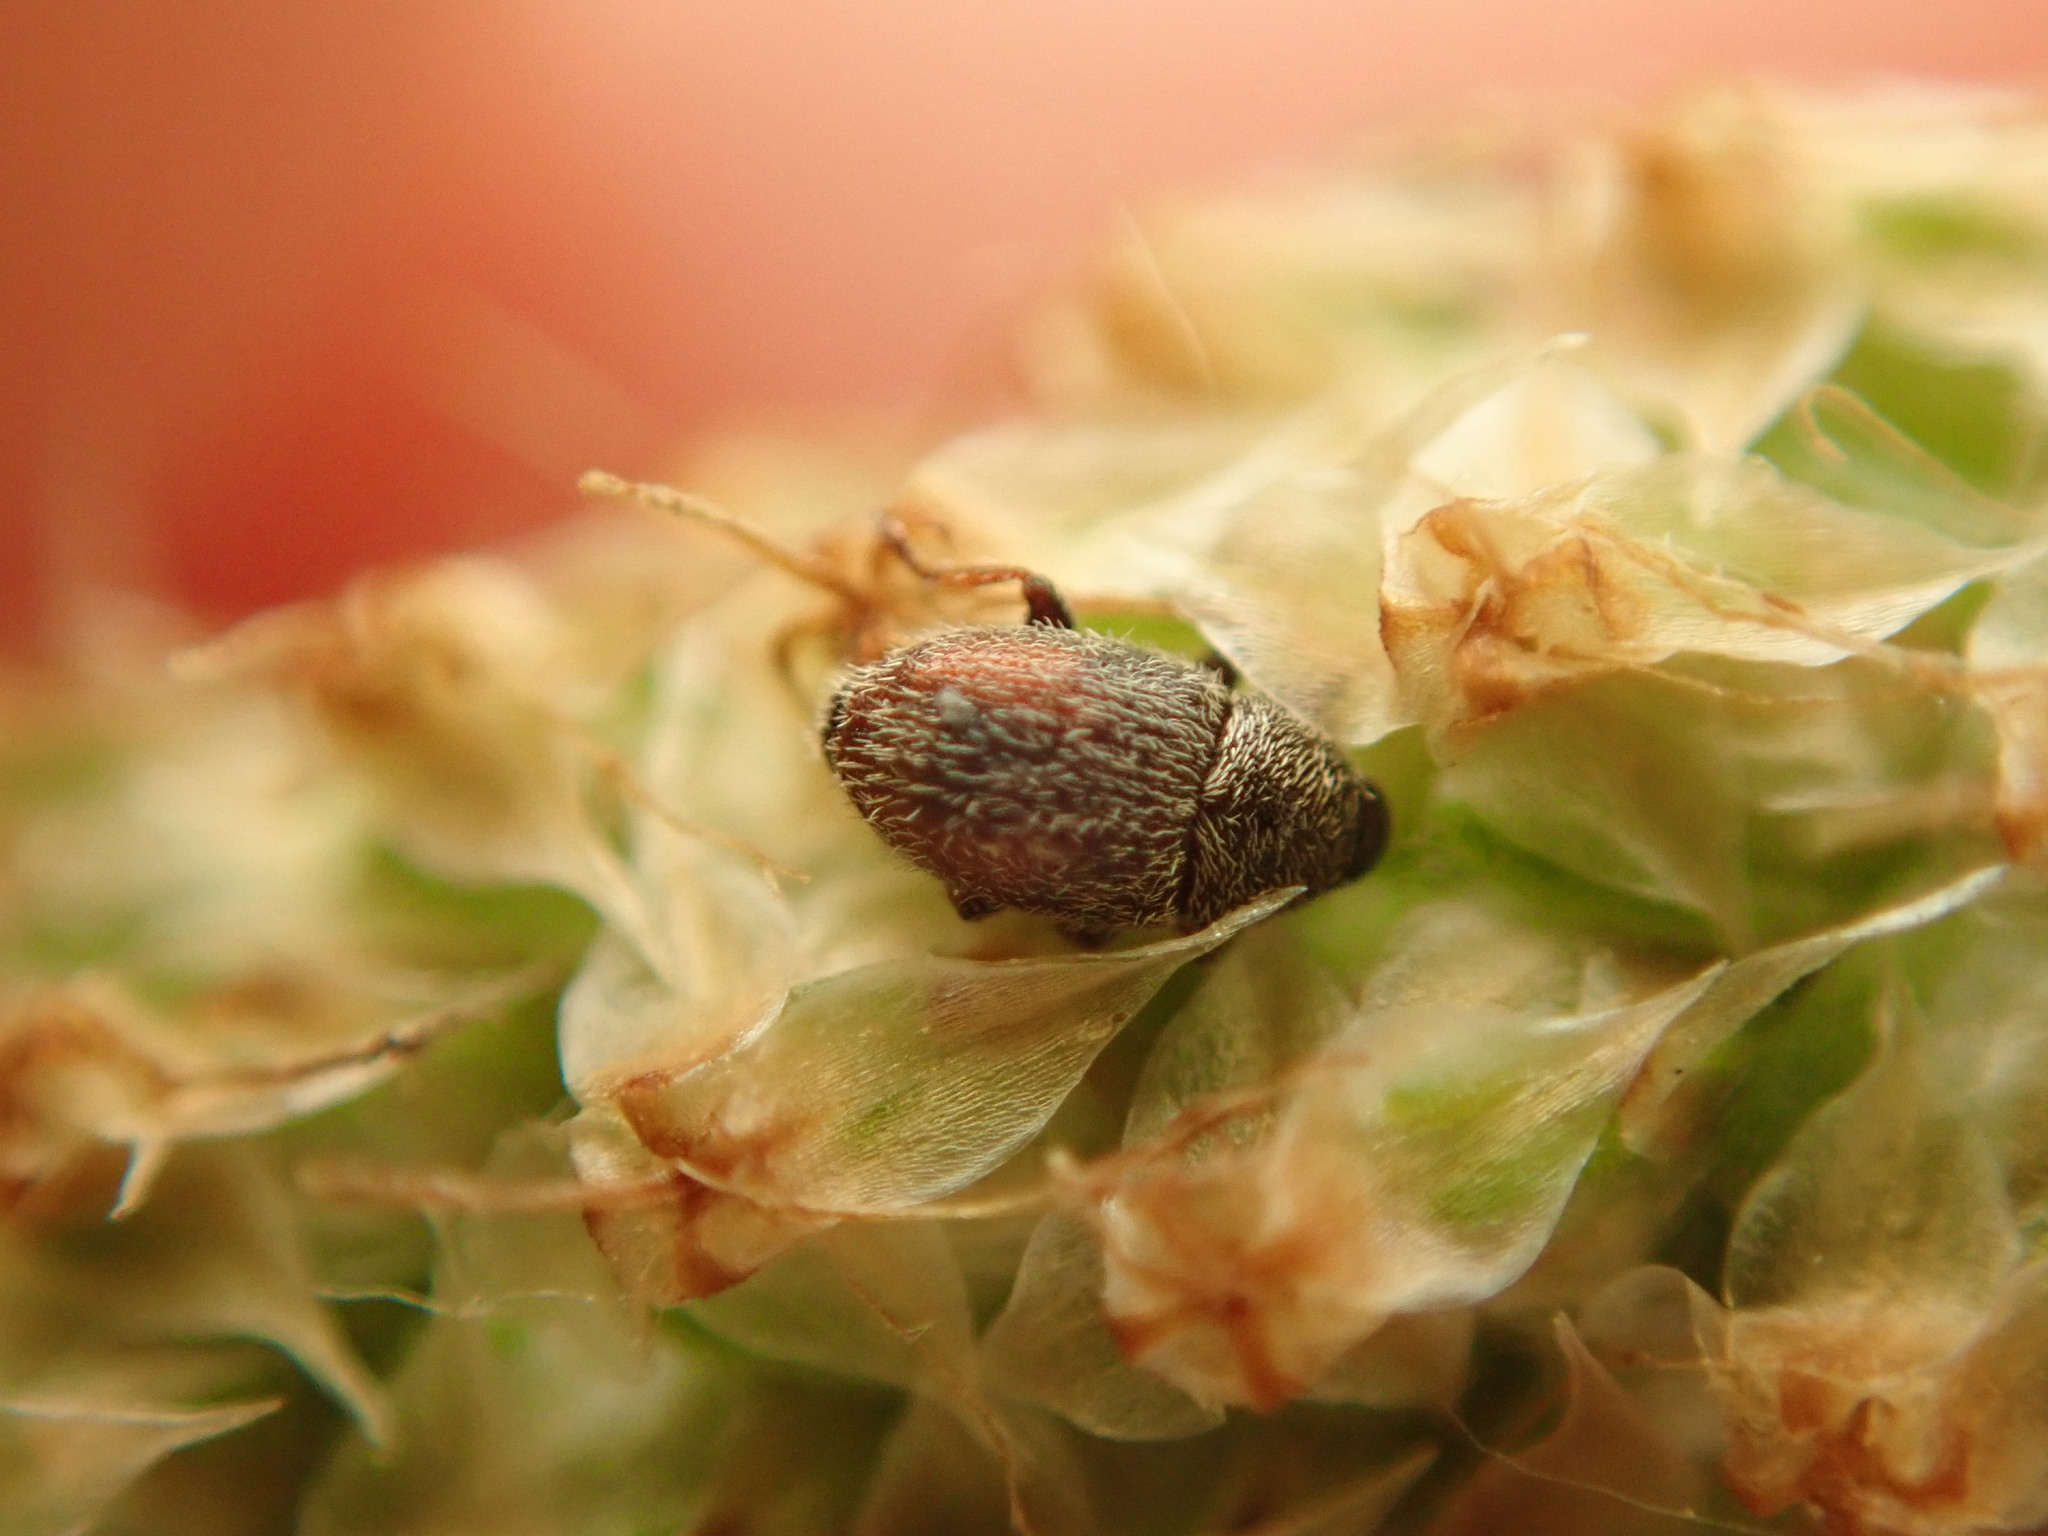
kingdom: Animalia
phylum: Arthropoda
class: Insecta
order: Coleoptera
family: Curculionidae
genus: Mecinus
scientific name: Mecinus pascuorum
